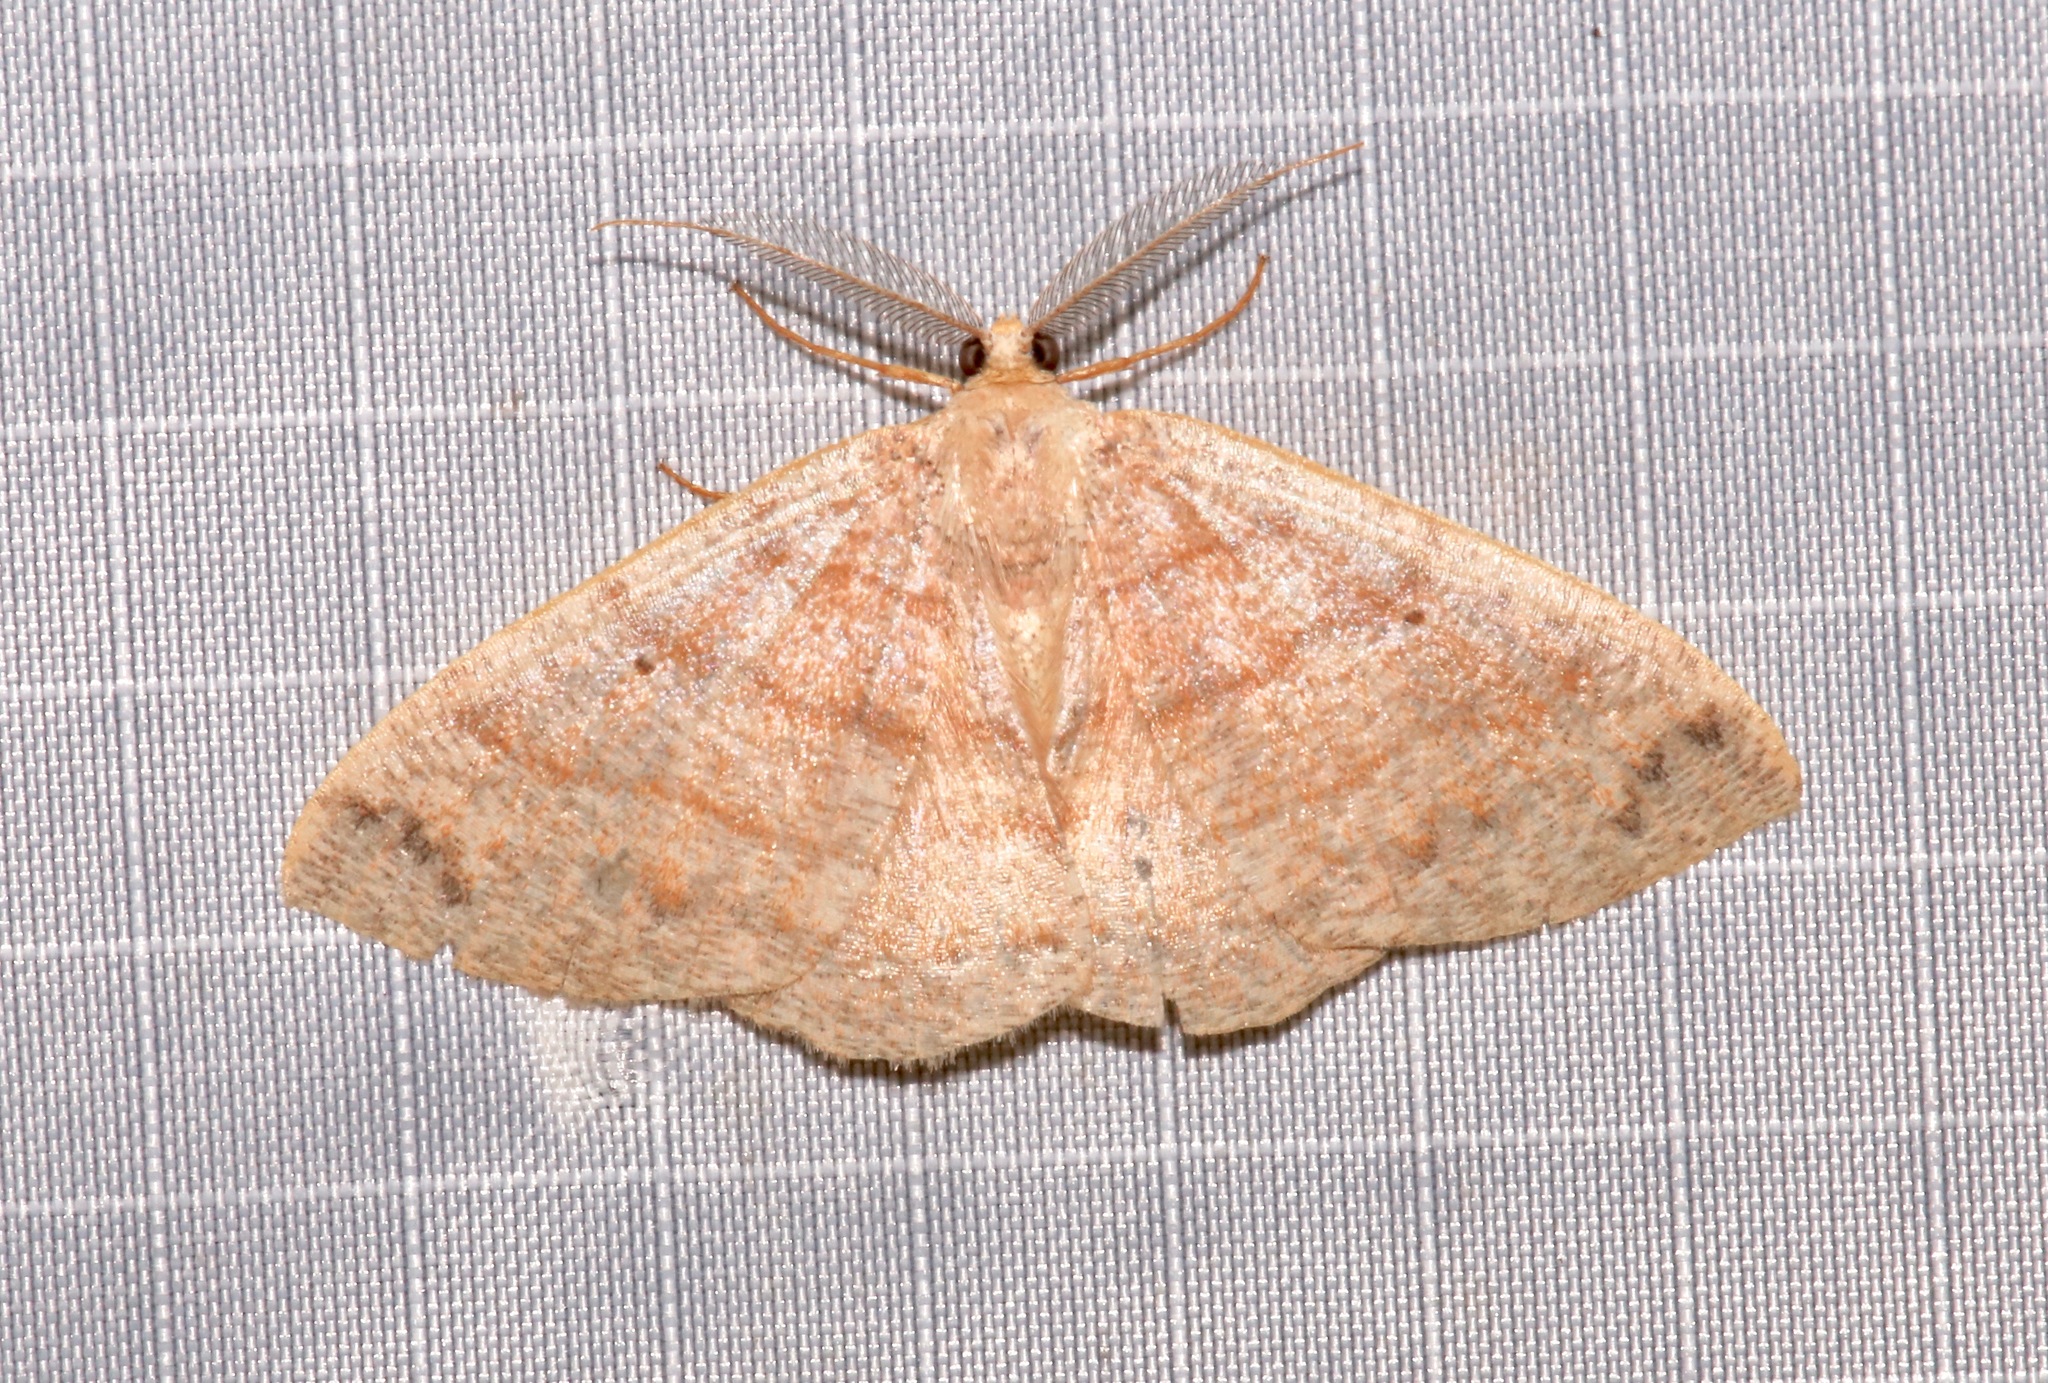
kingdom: Animalia
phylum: Arthropoda
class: Insecta
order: Lepidoptera
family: Geometridae
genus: Pterospoda
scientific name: Pterospoda opuscularia
